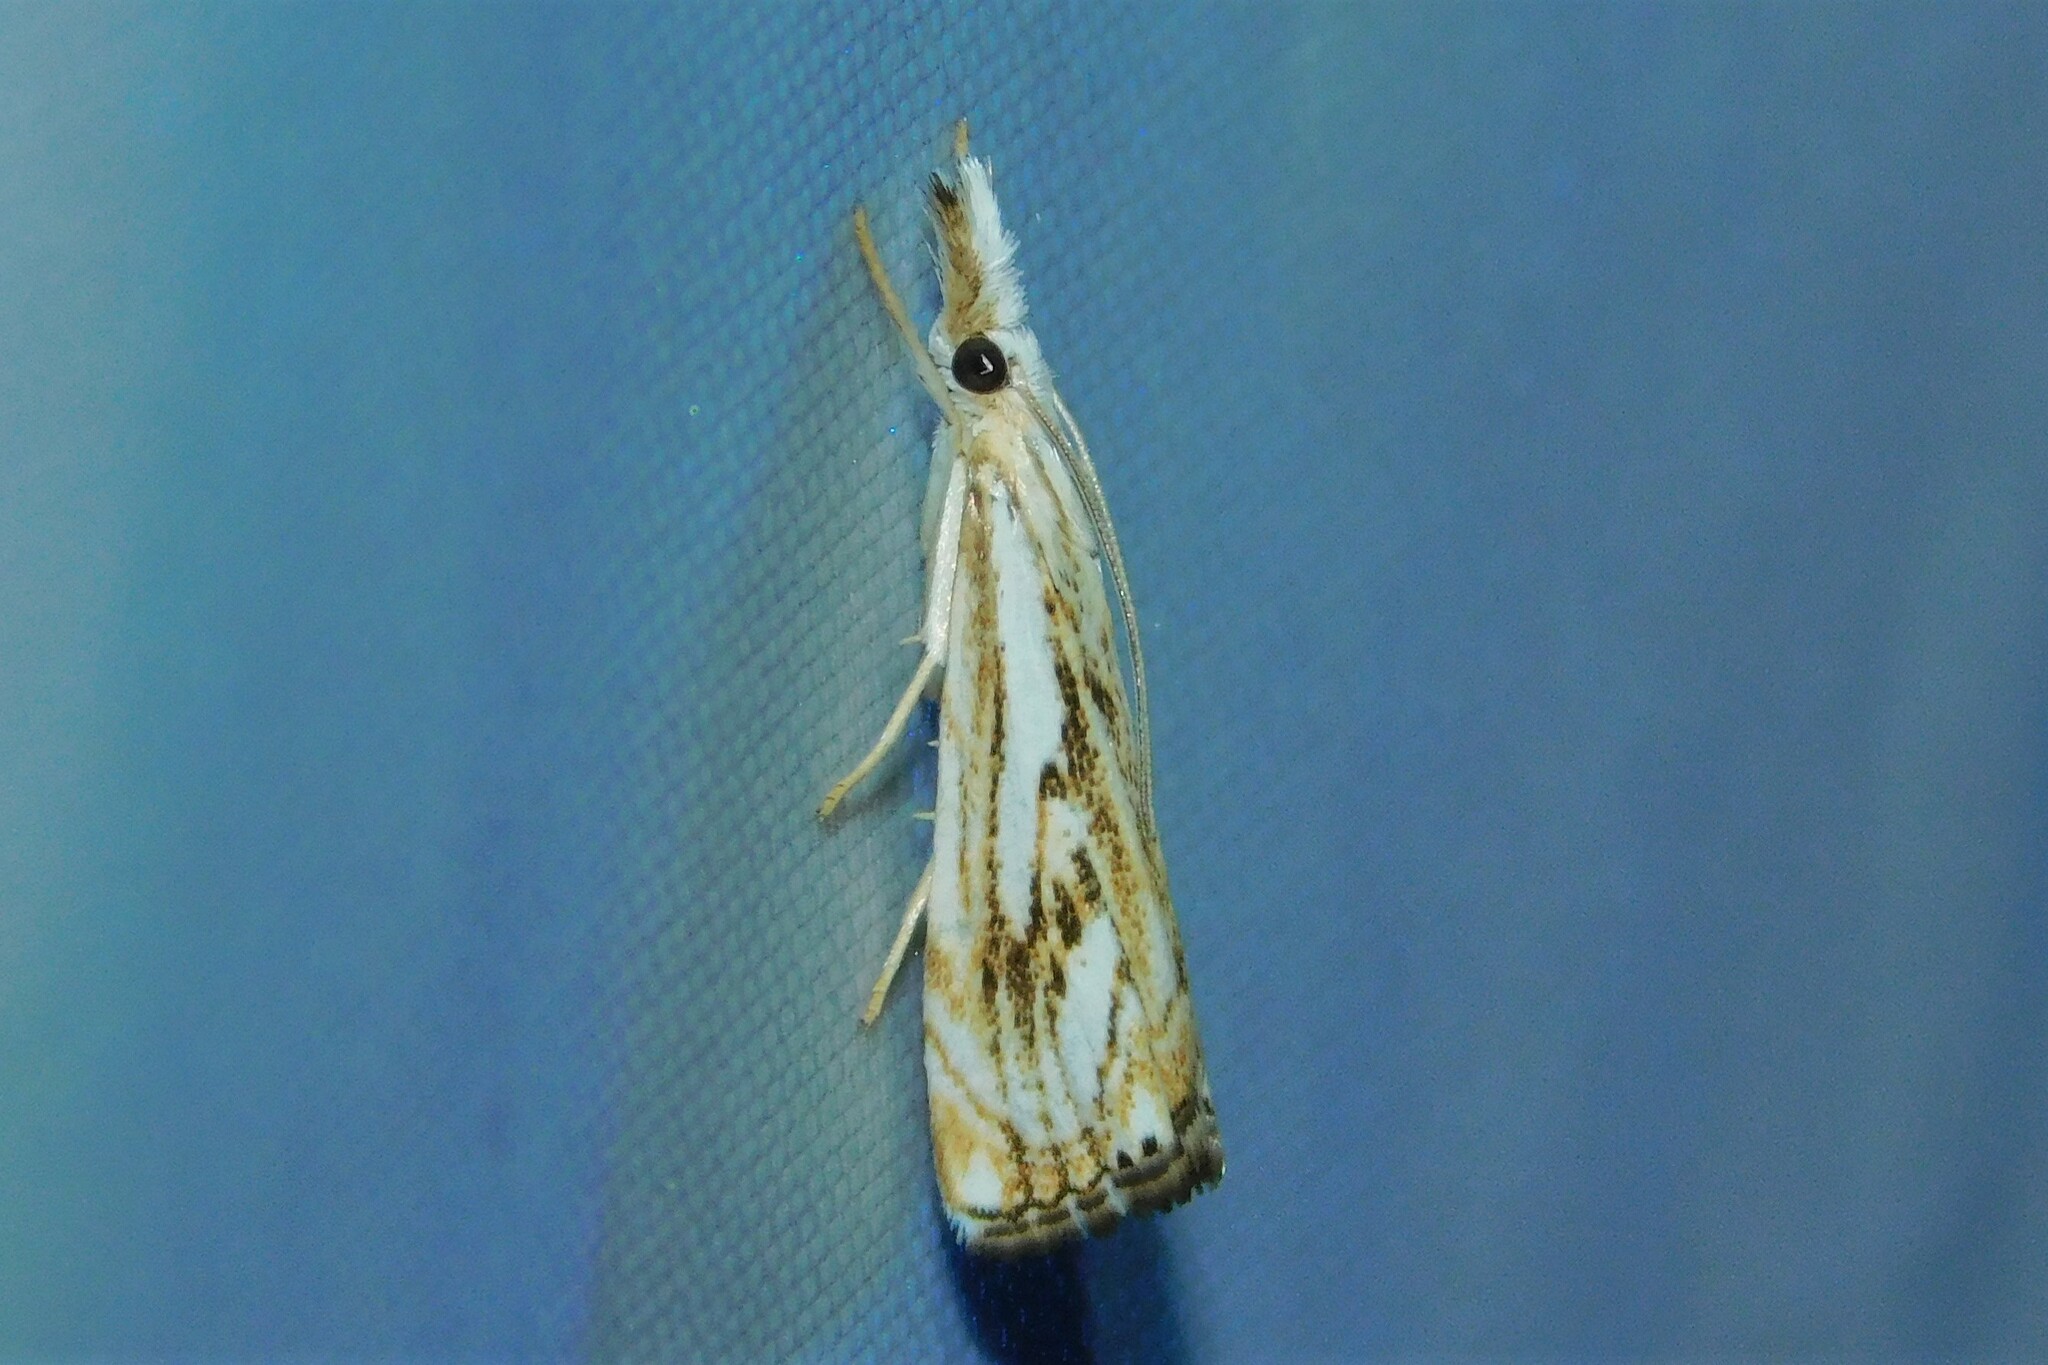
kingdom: Animalia
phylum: Arthropoda
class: Insecta
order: Lepidoptera
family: Crambidae
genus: Catoptria
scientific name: Catoptria falsella
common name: Chequered grass-veneer
